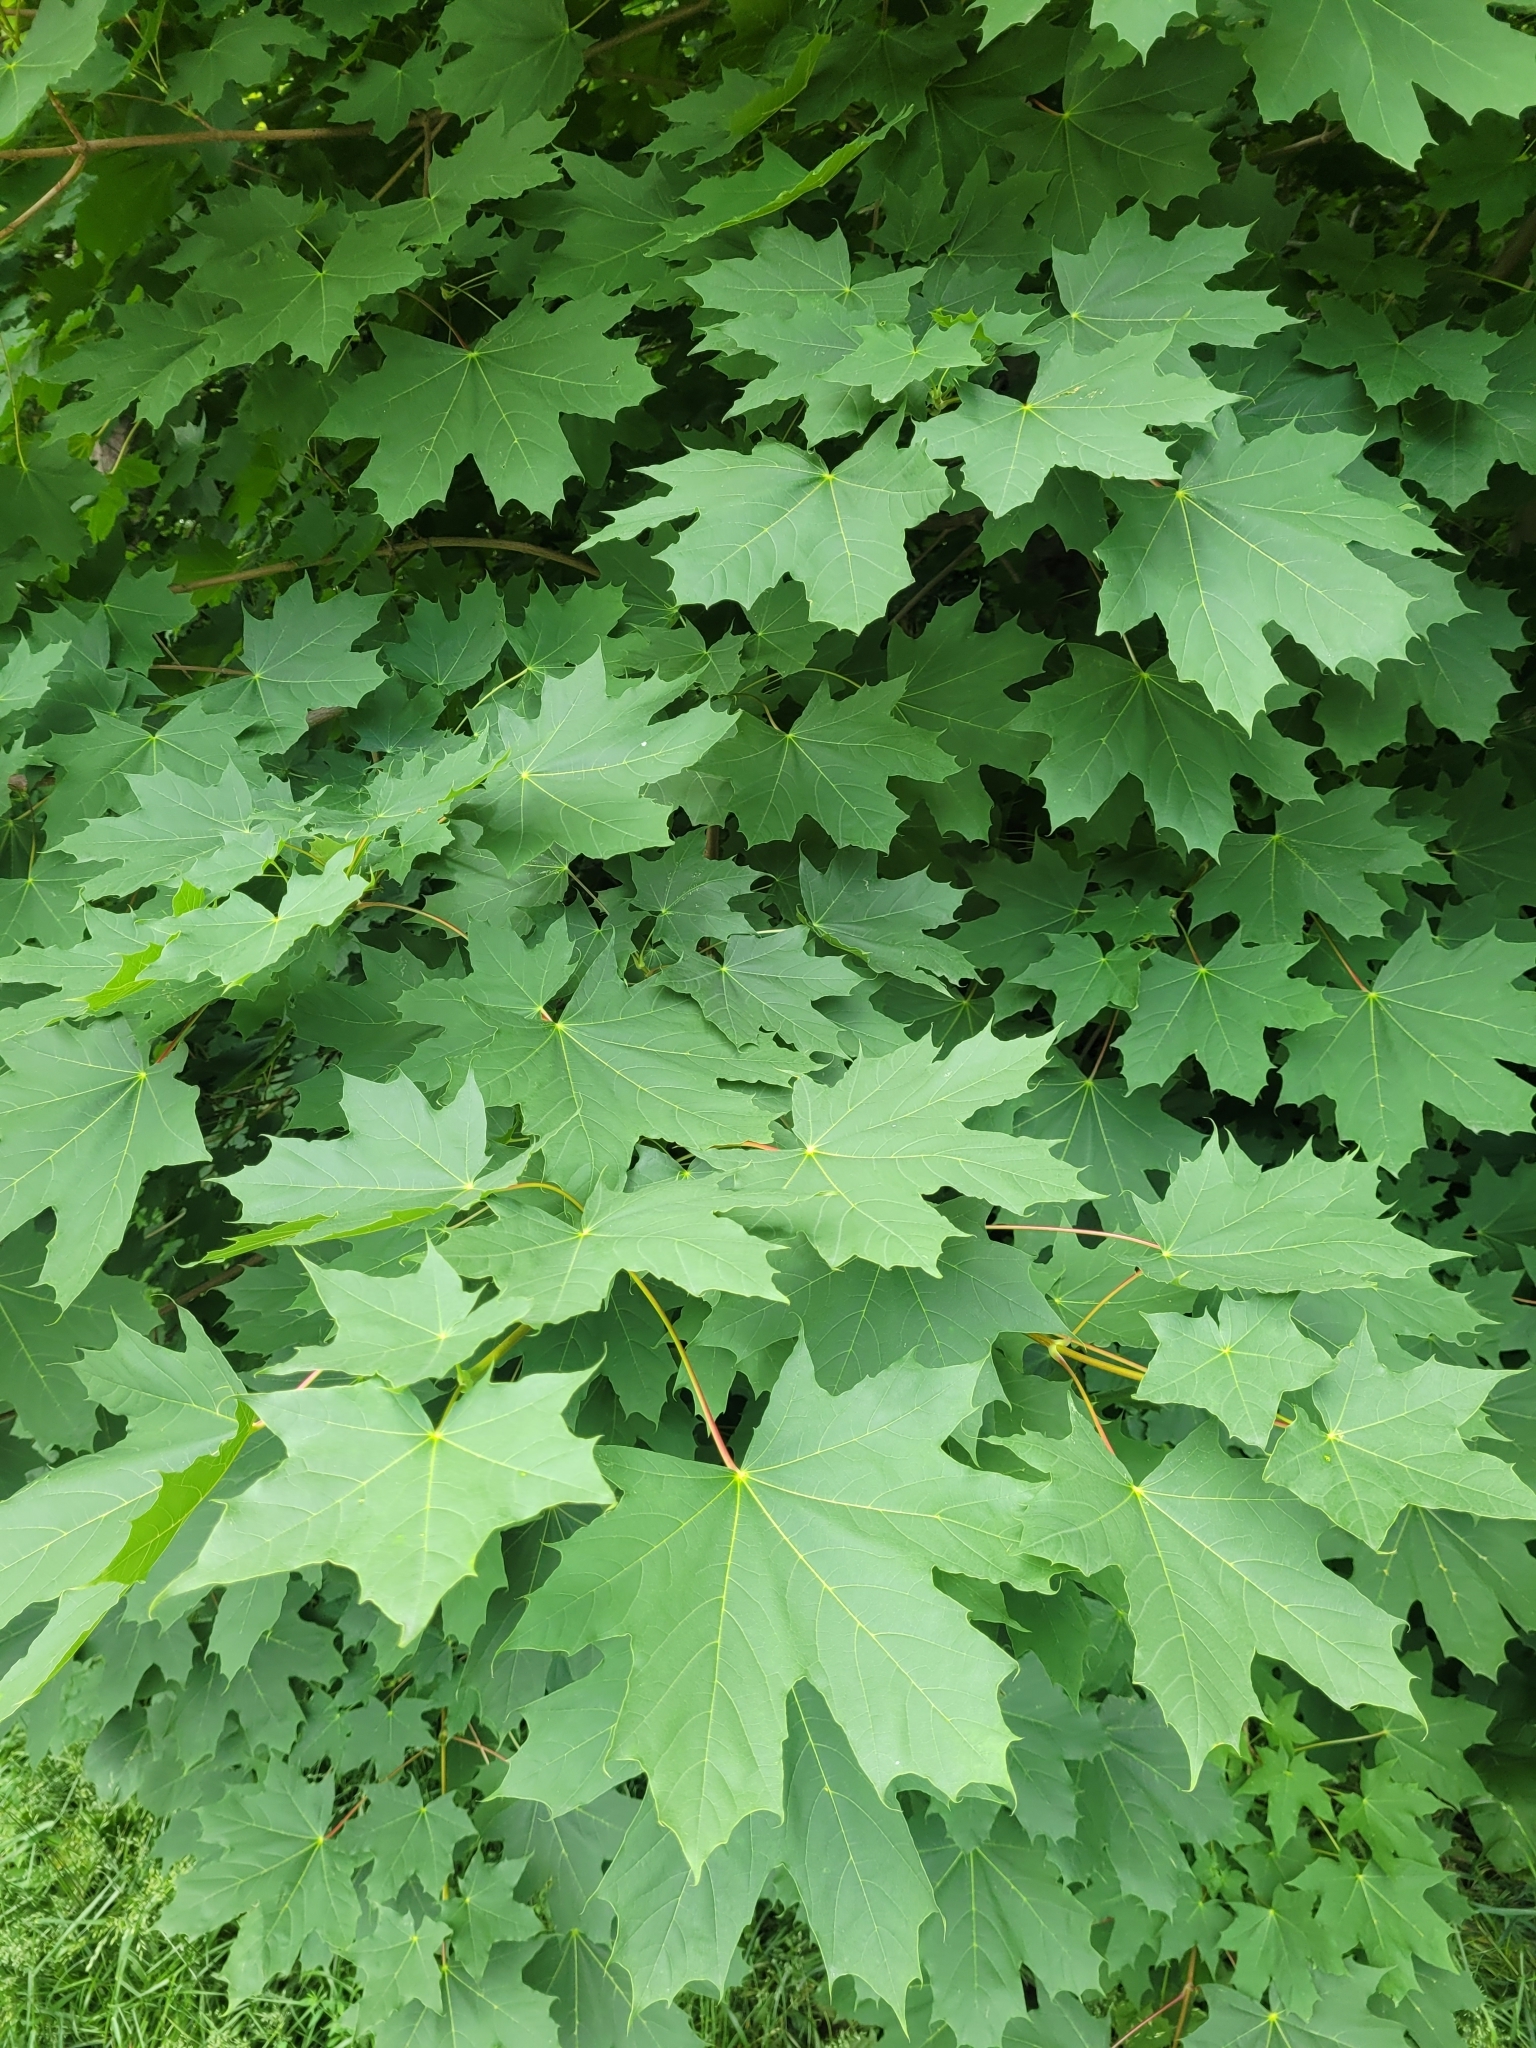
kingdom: Plantae
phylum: Tracheophyta
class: Magnoliopsida
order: Sapindales
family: Sapindaceae
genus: Acer
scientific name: Acer platanoides
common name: Norway maple
